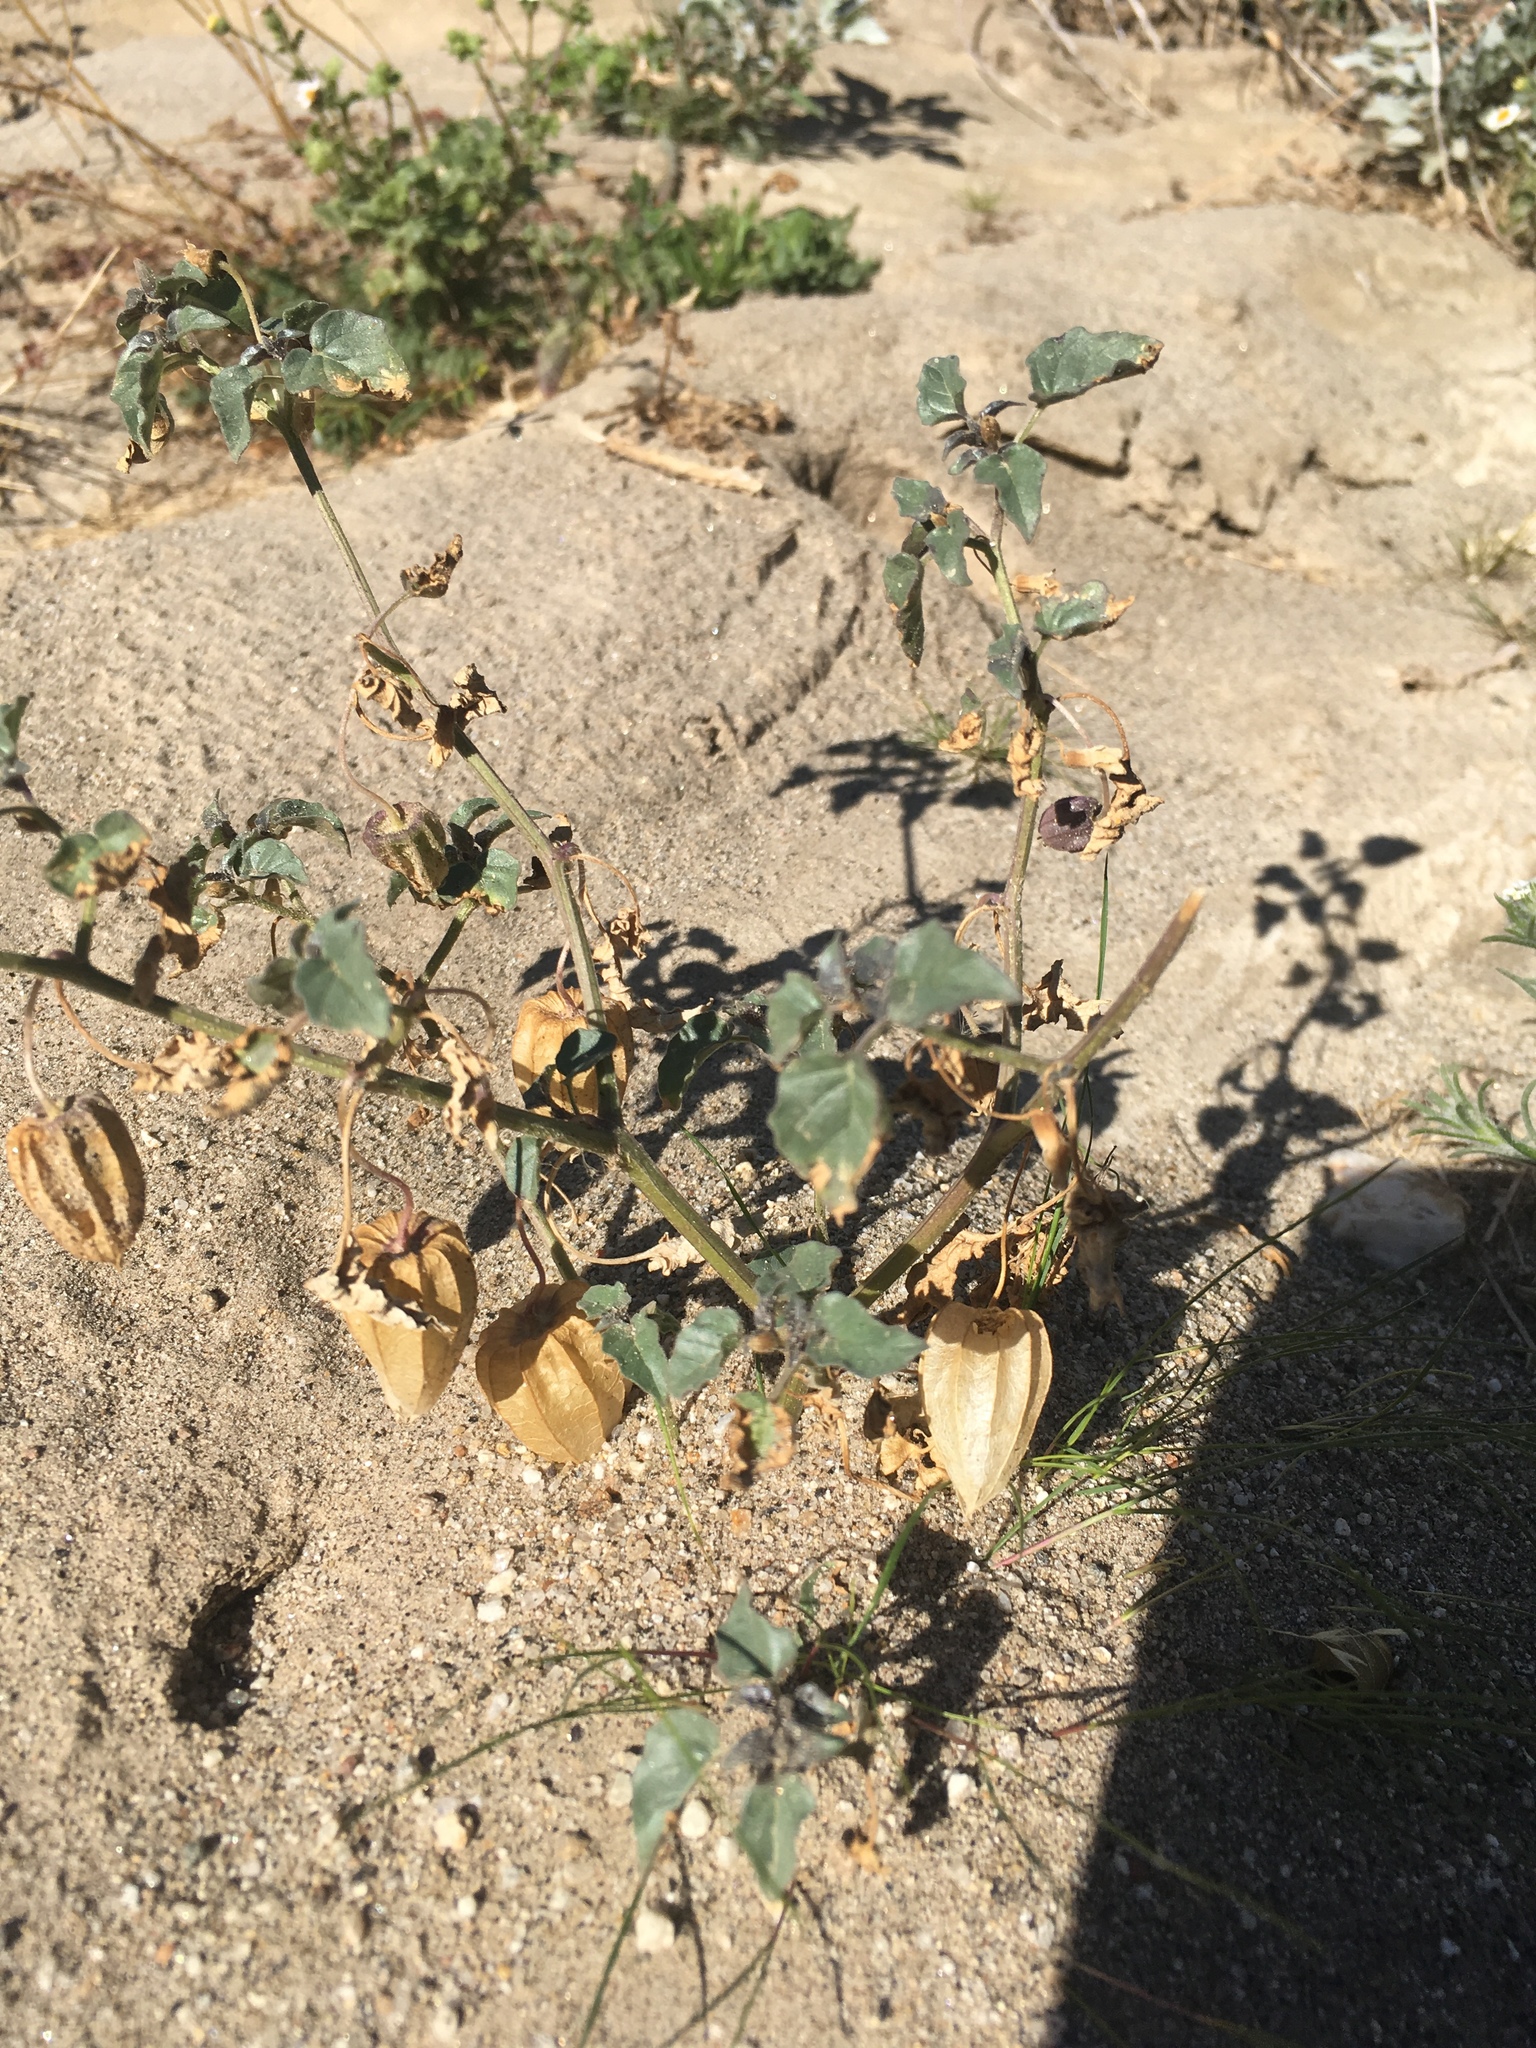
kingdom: Plantae
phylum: Tracheophyta
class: Magnoliopsida
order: Solanales
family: Solanaceae
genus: Physalis
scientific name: Physalis crassifolia
